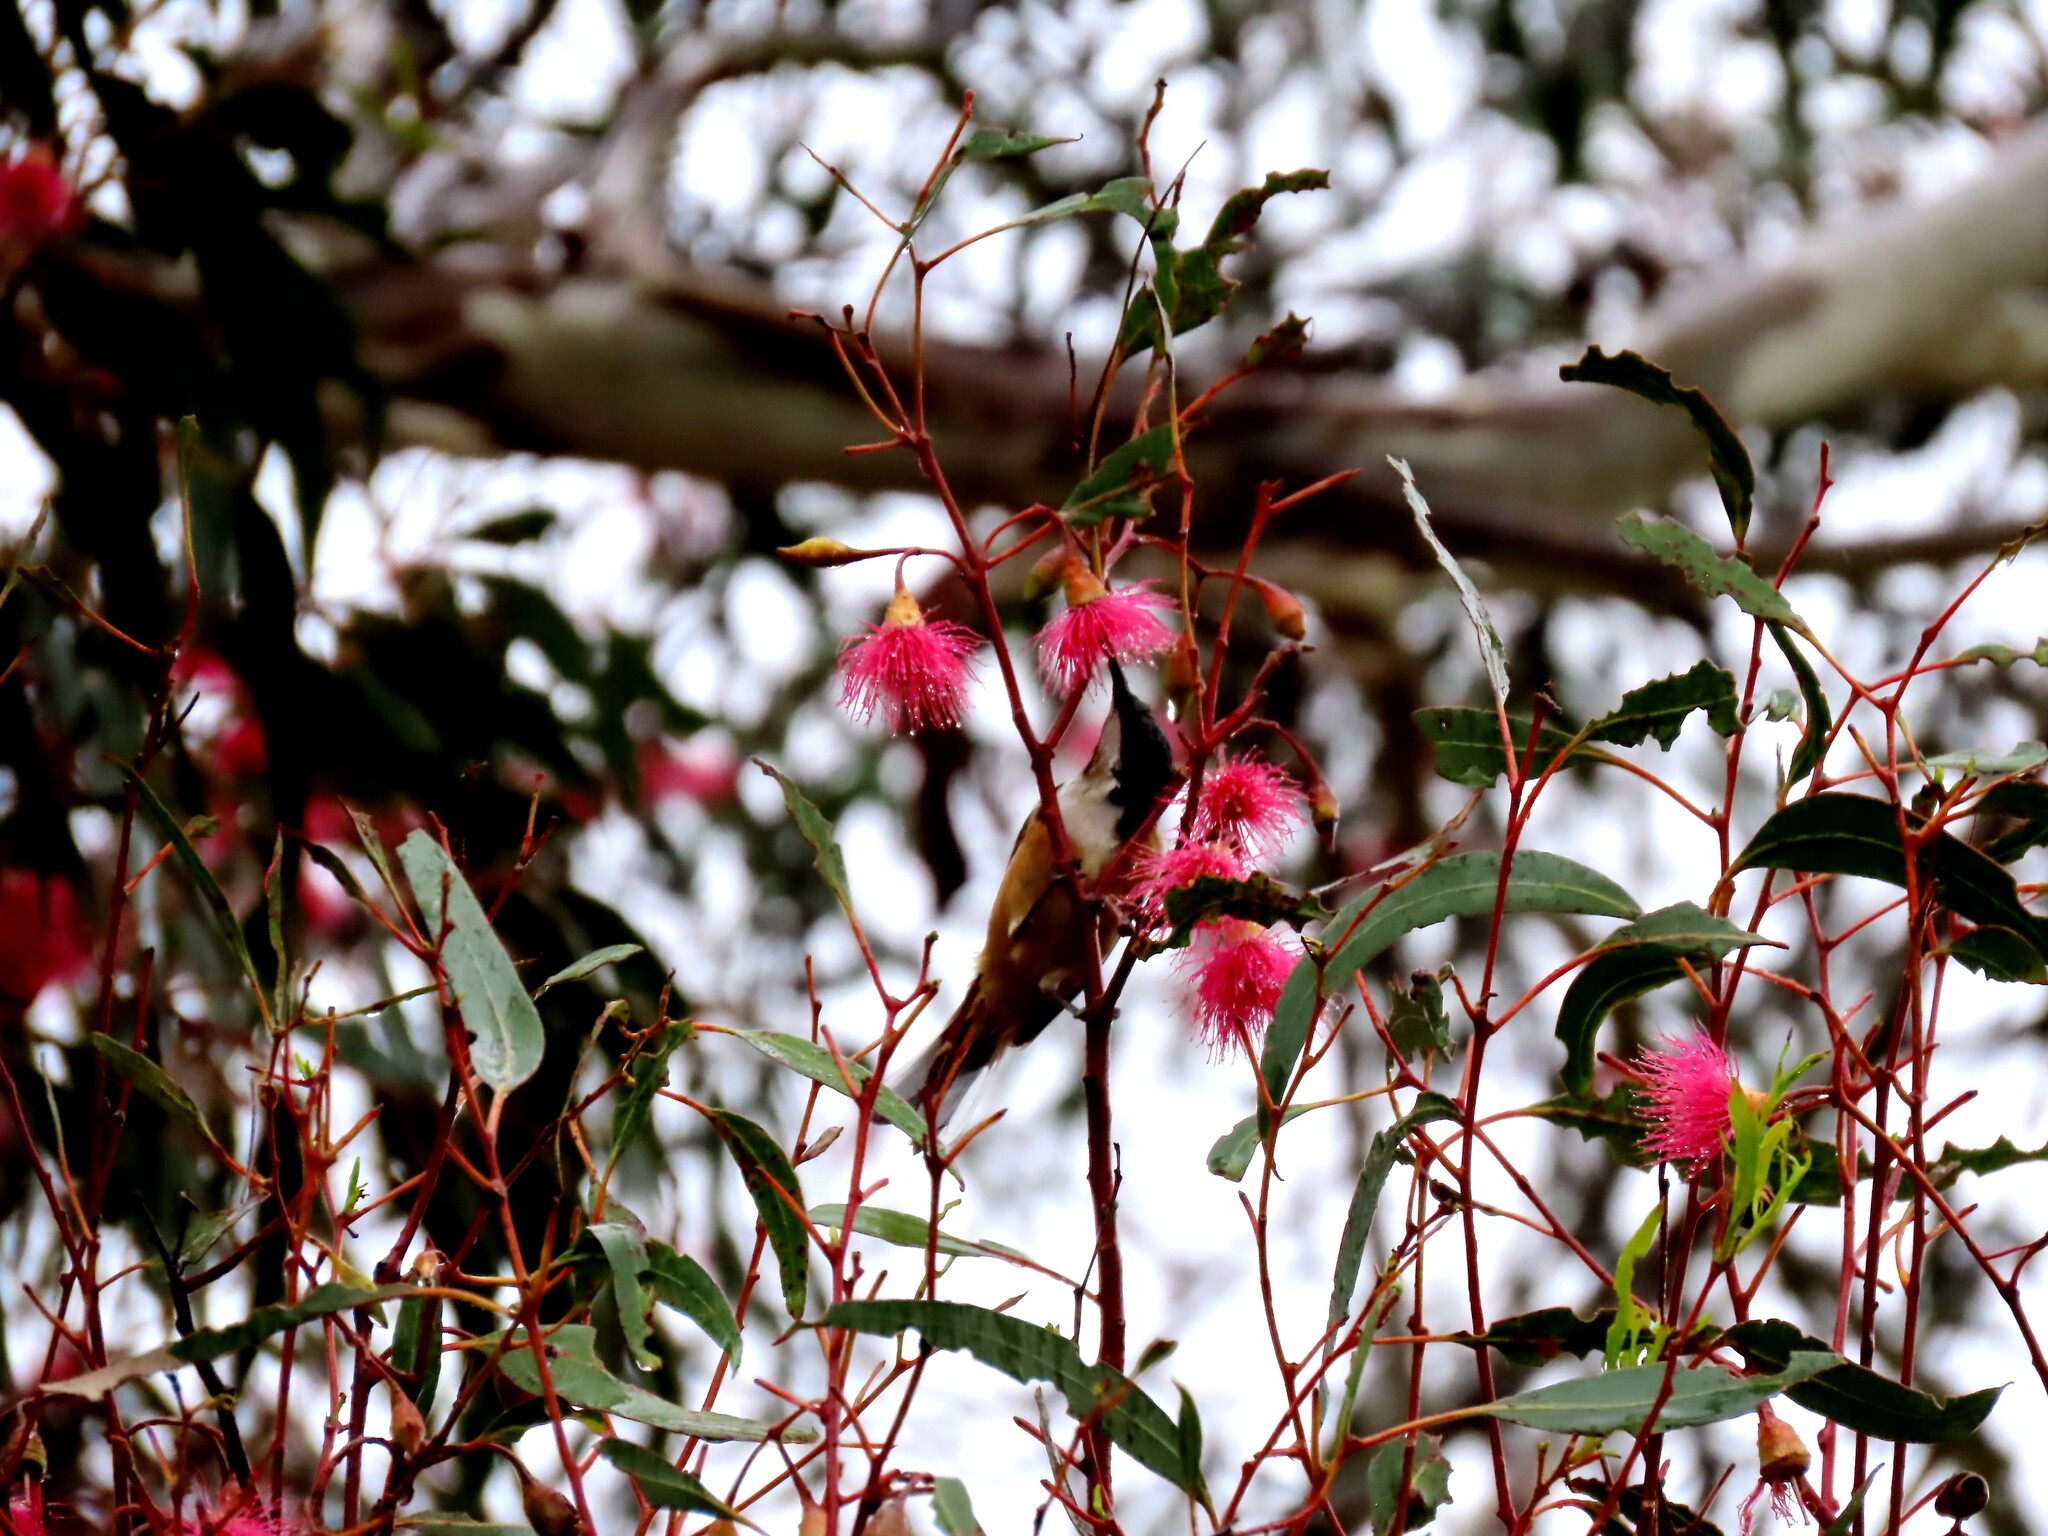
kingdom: Animalia
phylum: Chordata
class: Aves
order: Passeriformes
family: Meliphagidae
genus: Acanthorhynchus
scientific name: Acanthorhynchus tenuirostris
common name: Eastern spinebill
